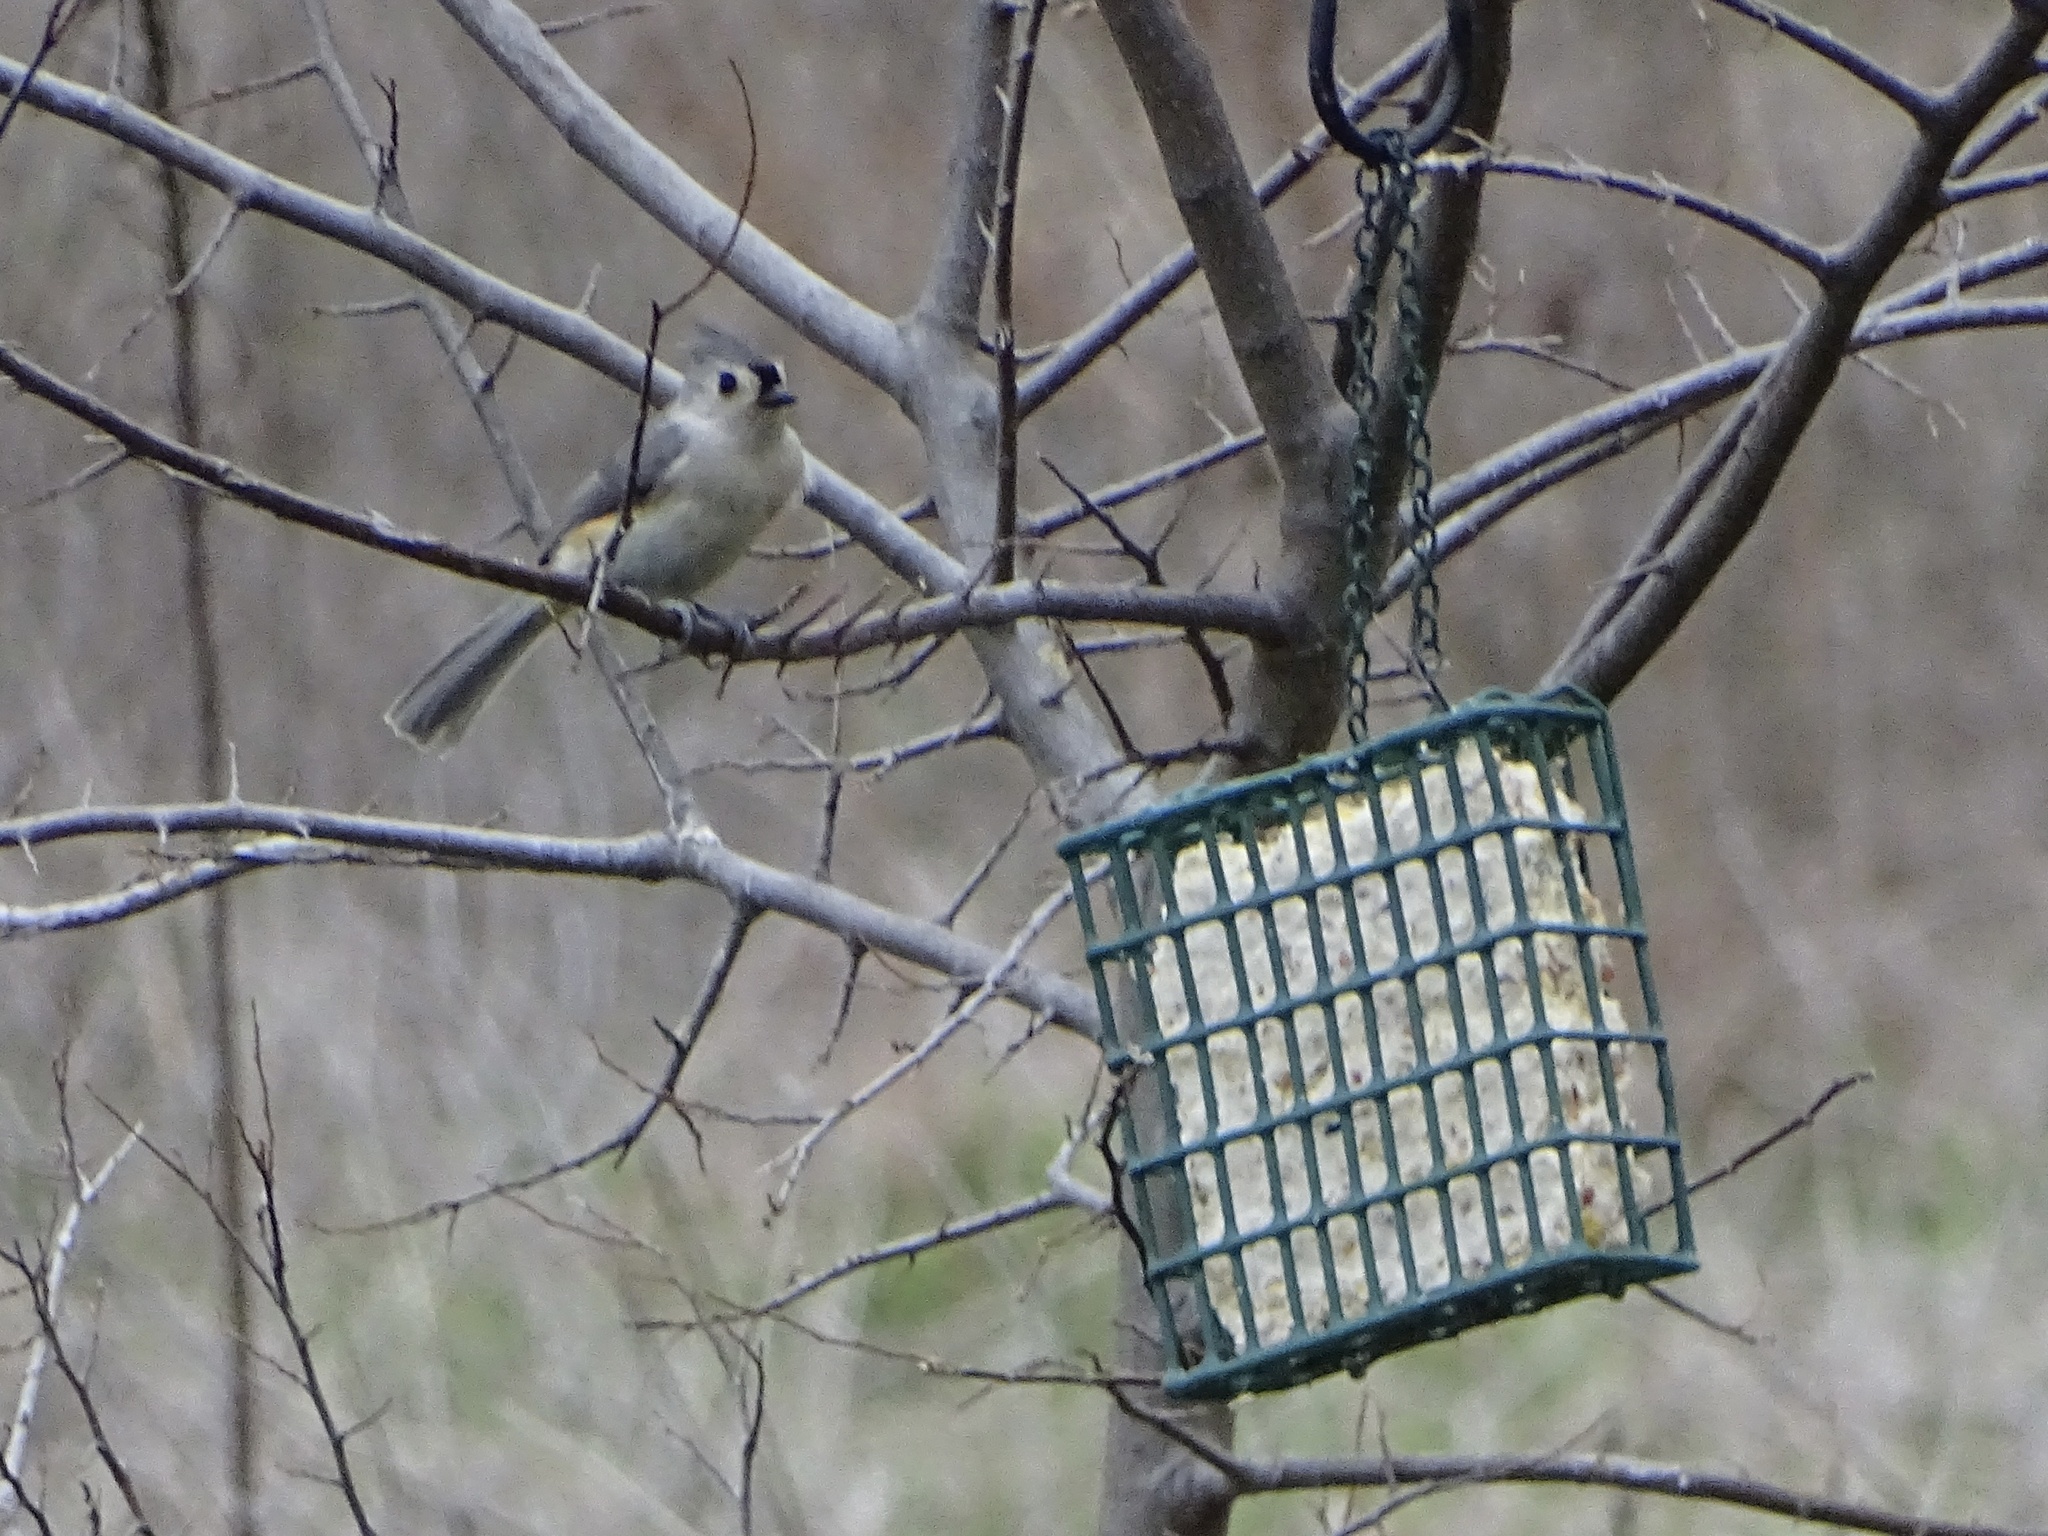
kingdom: Animalia
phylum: Chordata
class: Aves
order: Passeriformes
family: Paridae
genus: Baeolophus
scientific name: Baeolophus bicolor
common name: Tufted titmouse
